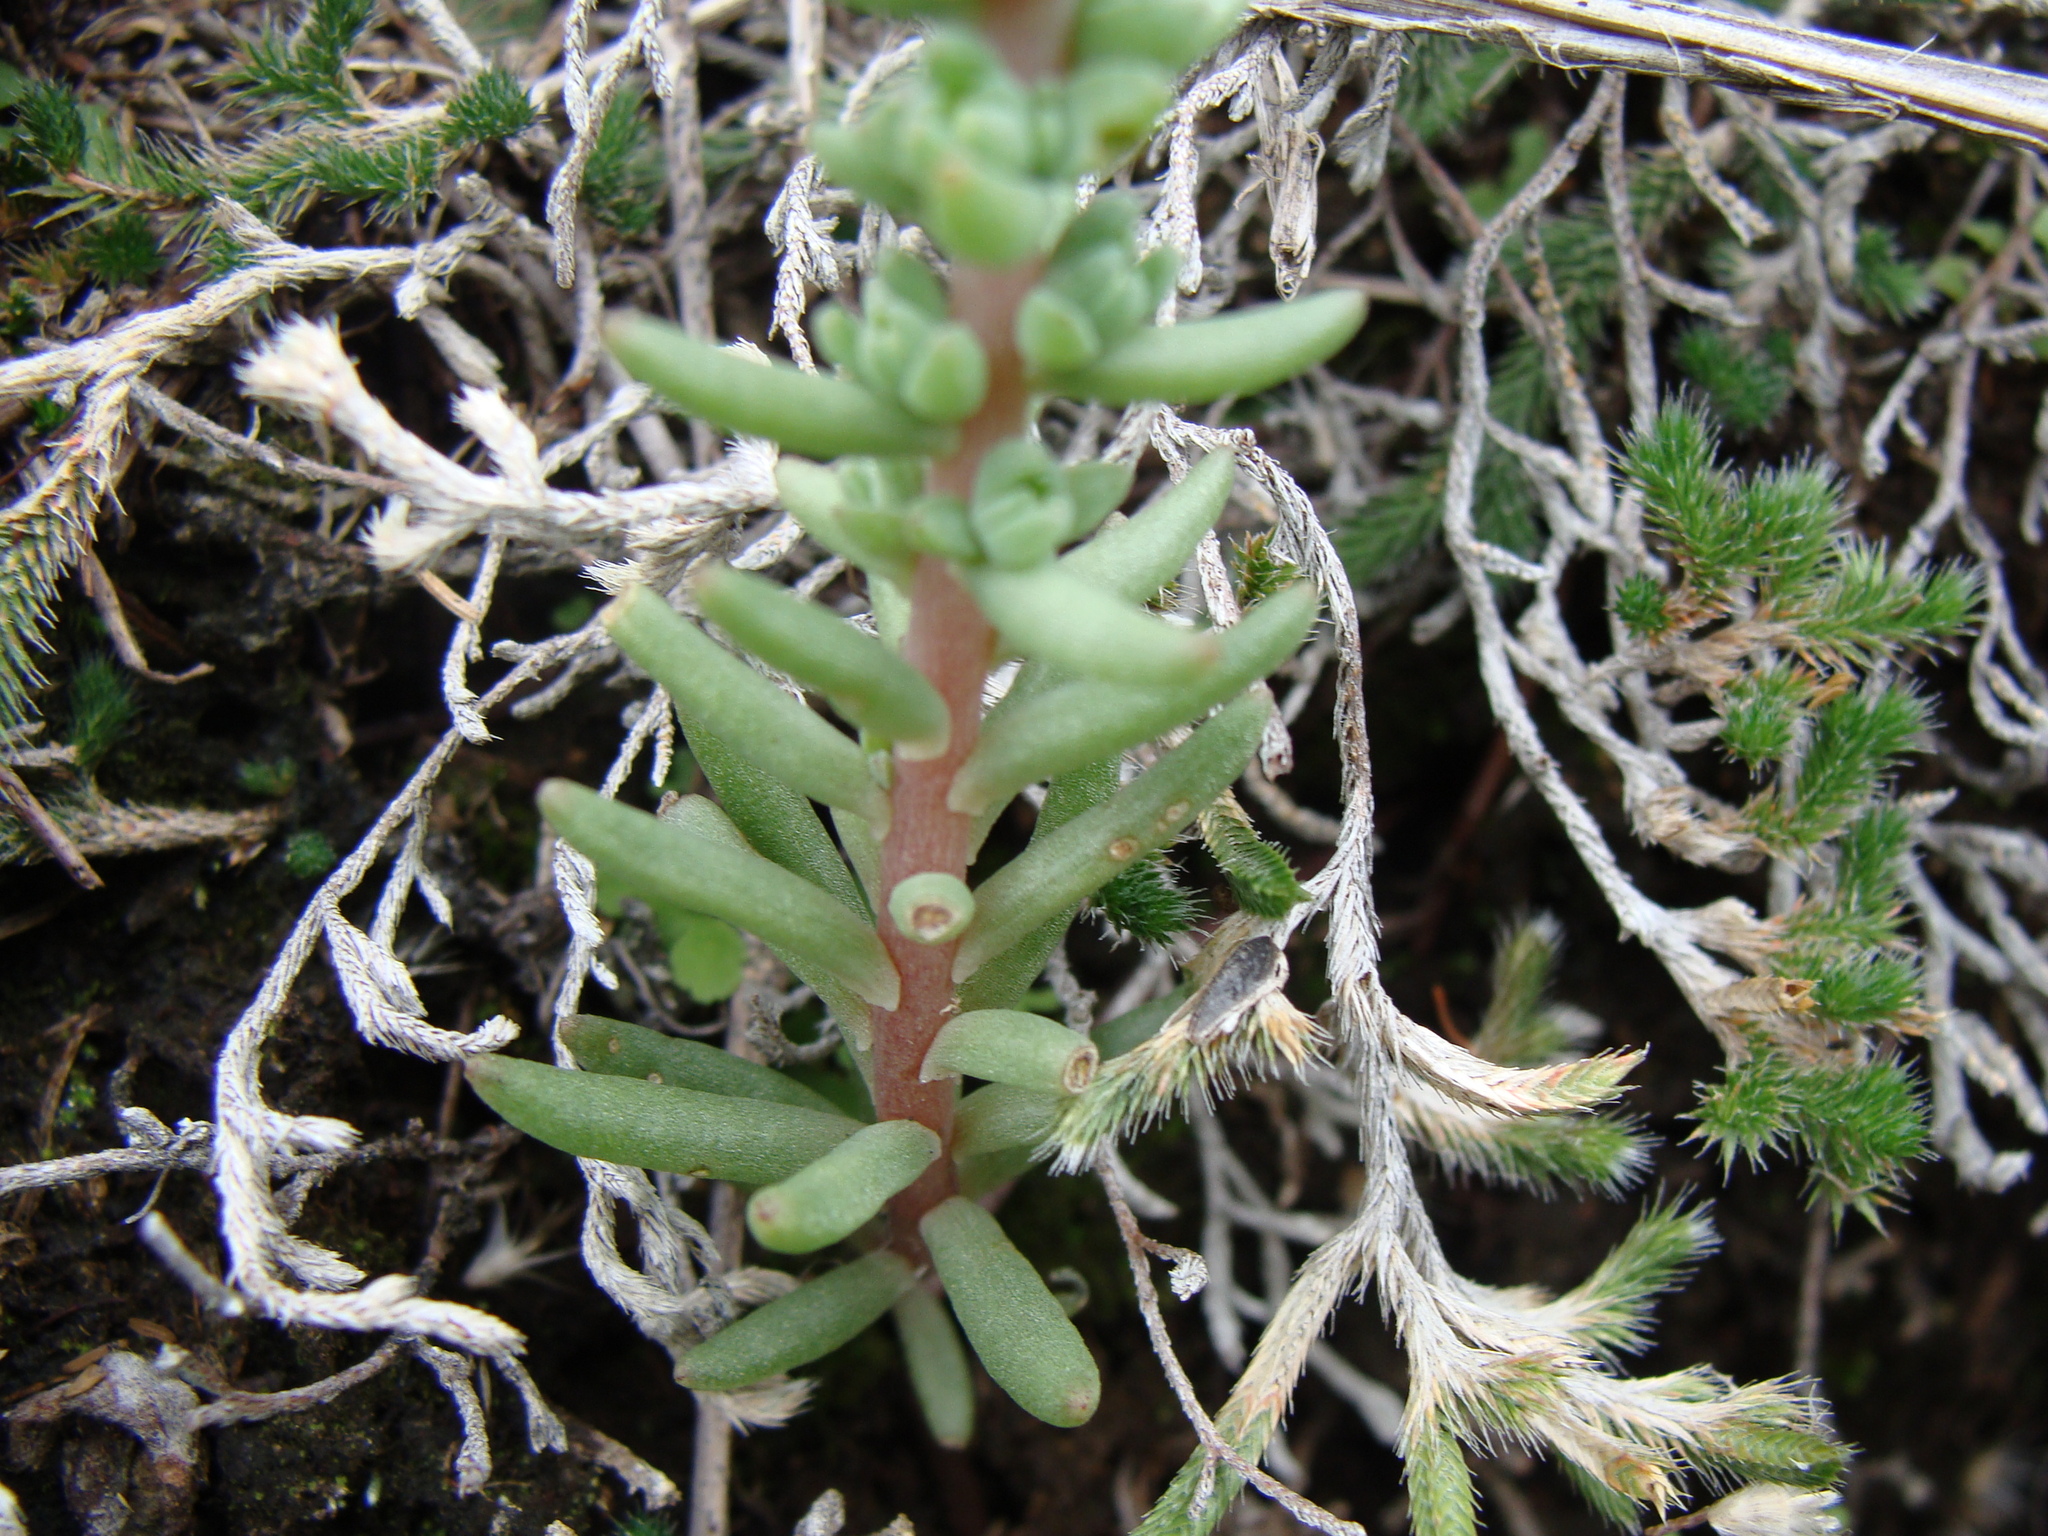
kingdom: Plantae
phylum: Tracheophyta
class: Magnoliopsida
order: Saxifragales
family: Crassulaceae
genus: Villadia
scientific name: Villadia misera
